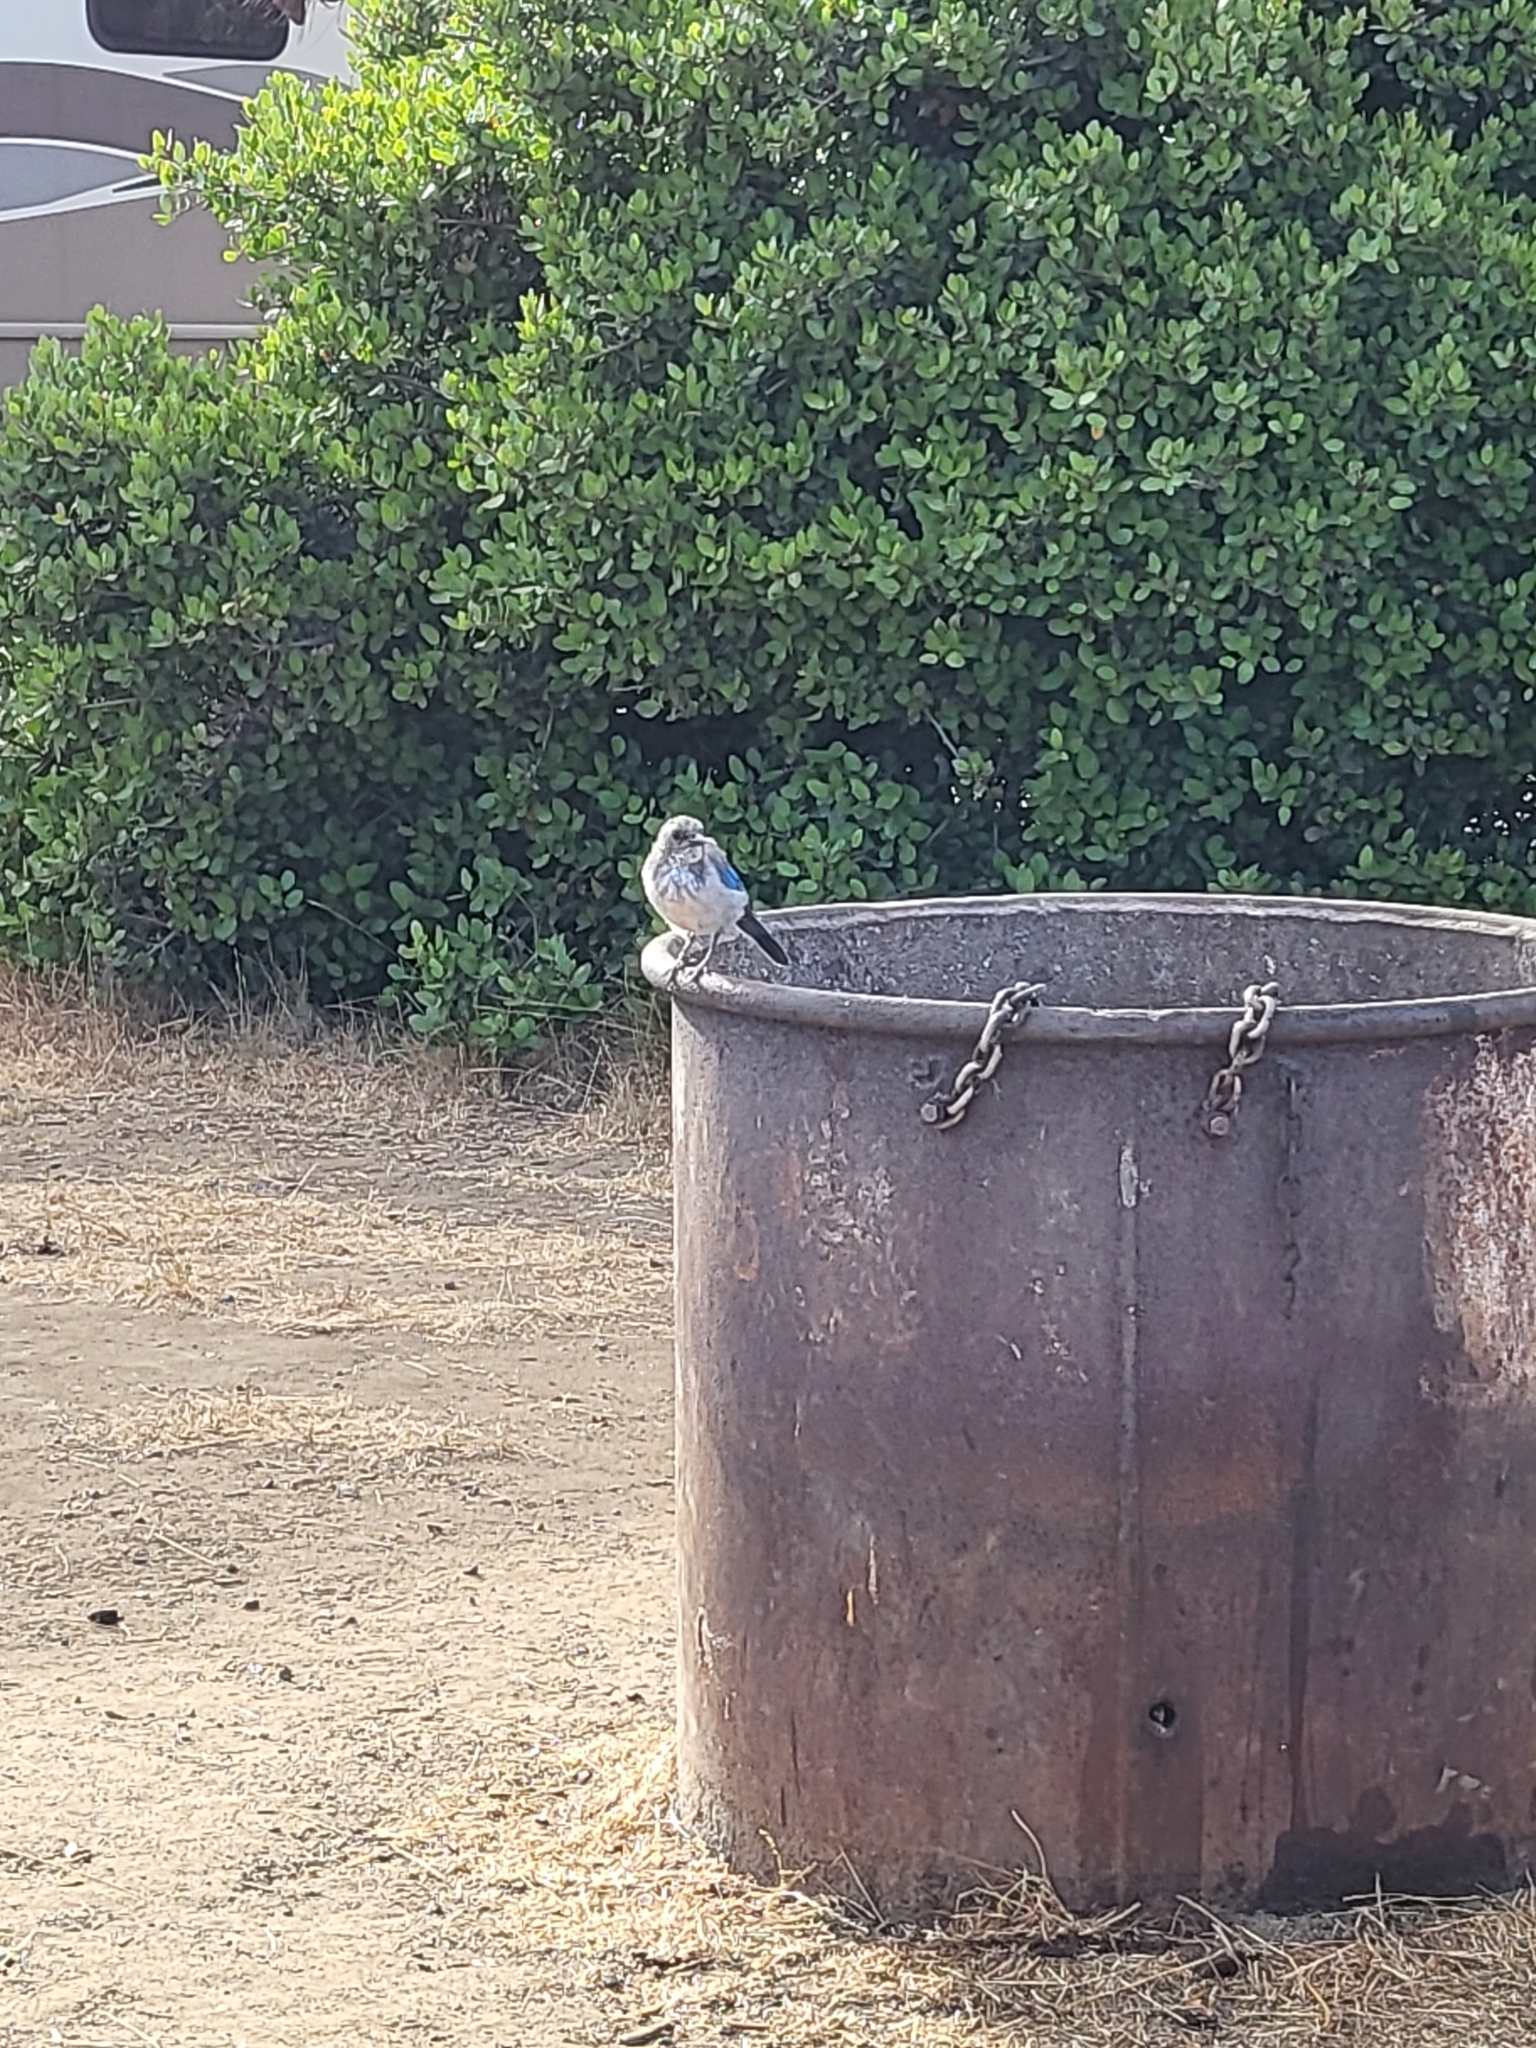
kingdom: Animalia
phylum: Chordata
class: Aves
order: Passeriformes
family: Corvidae
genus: Aphelocoma
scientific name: Aphelocoma californica
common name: California scrub-jay
